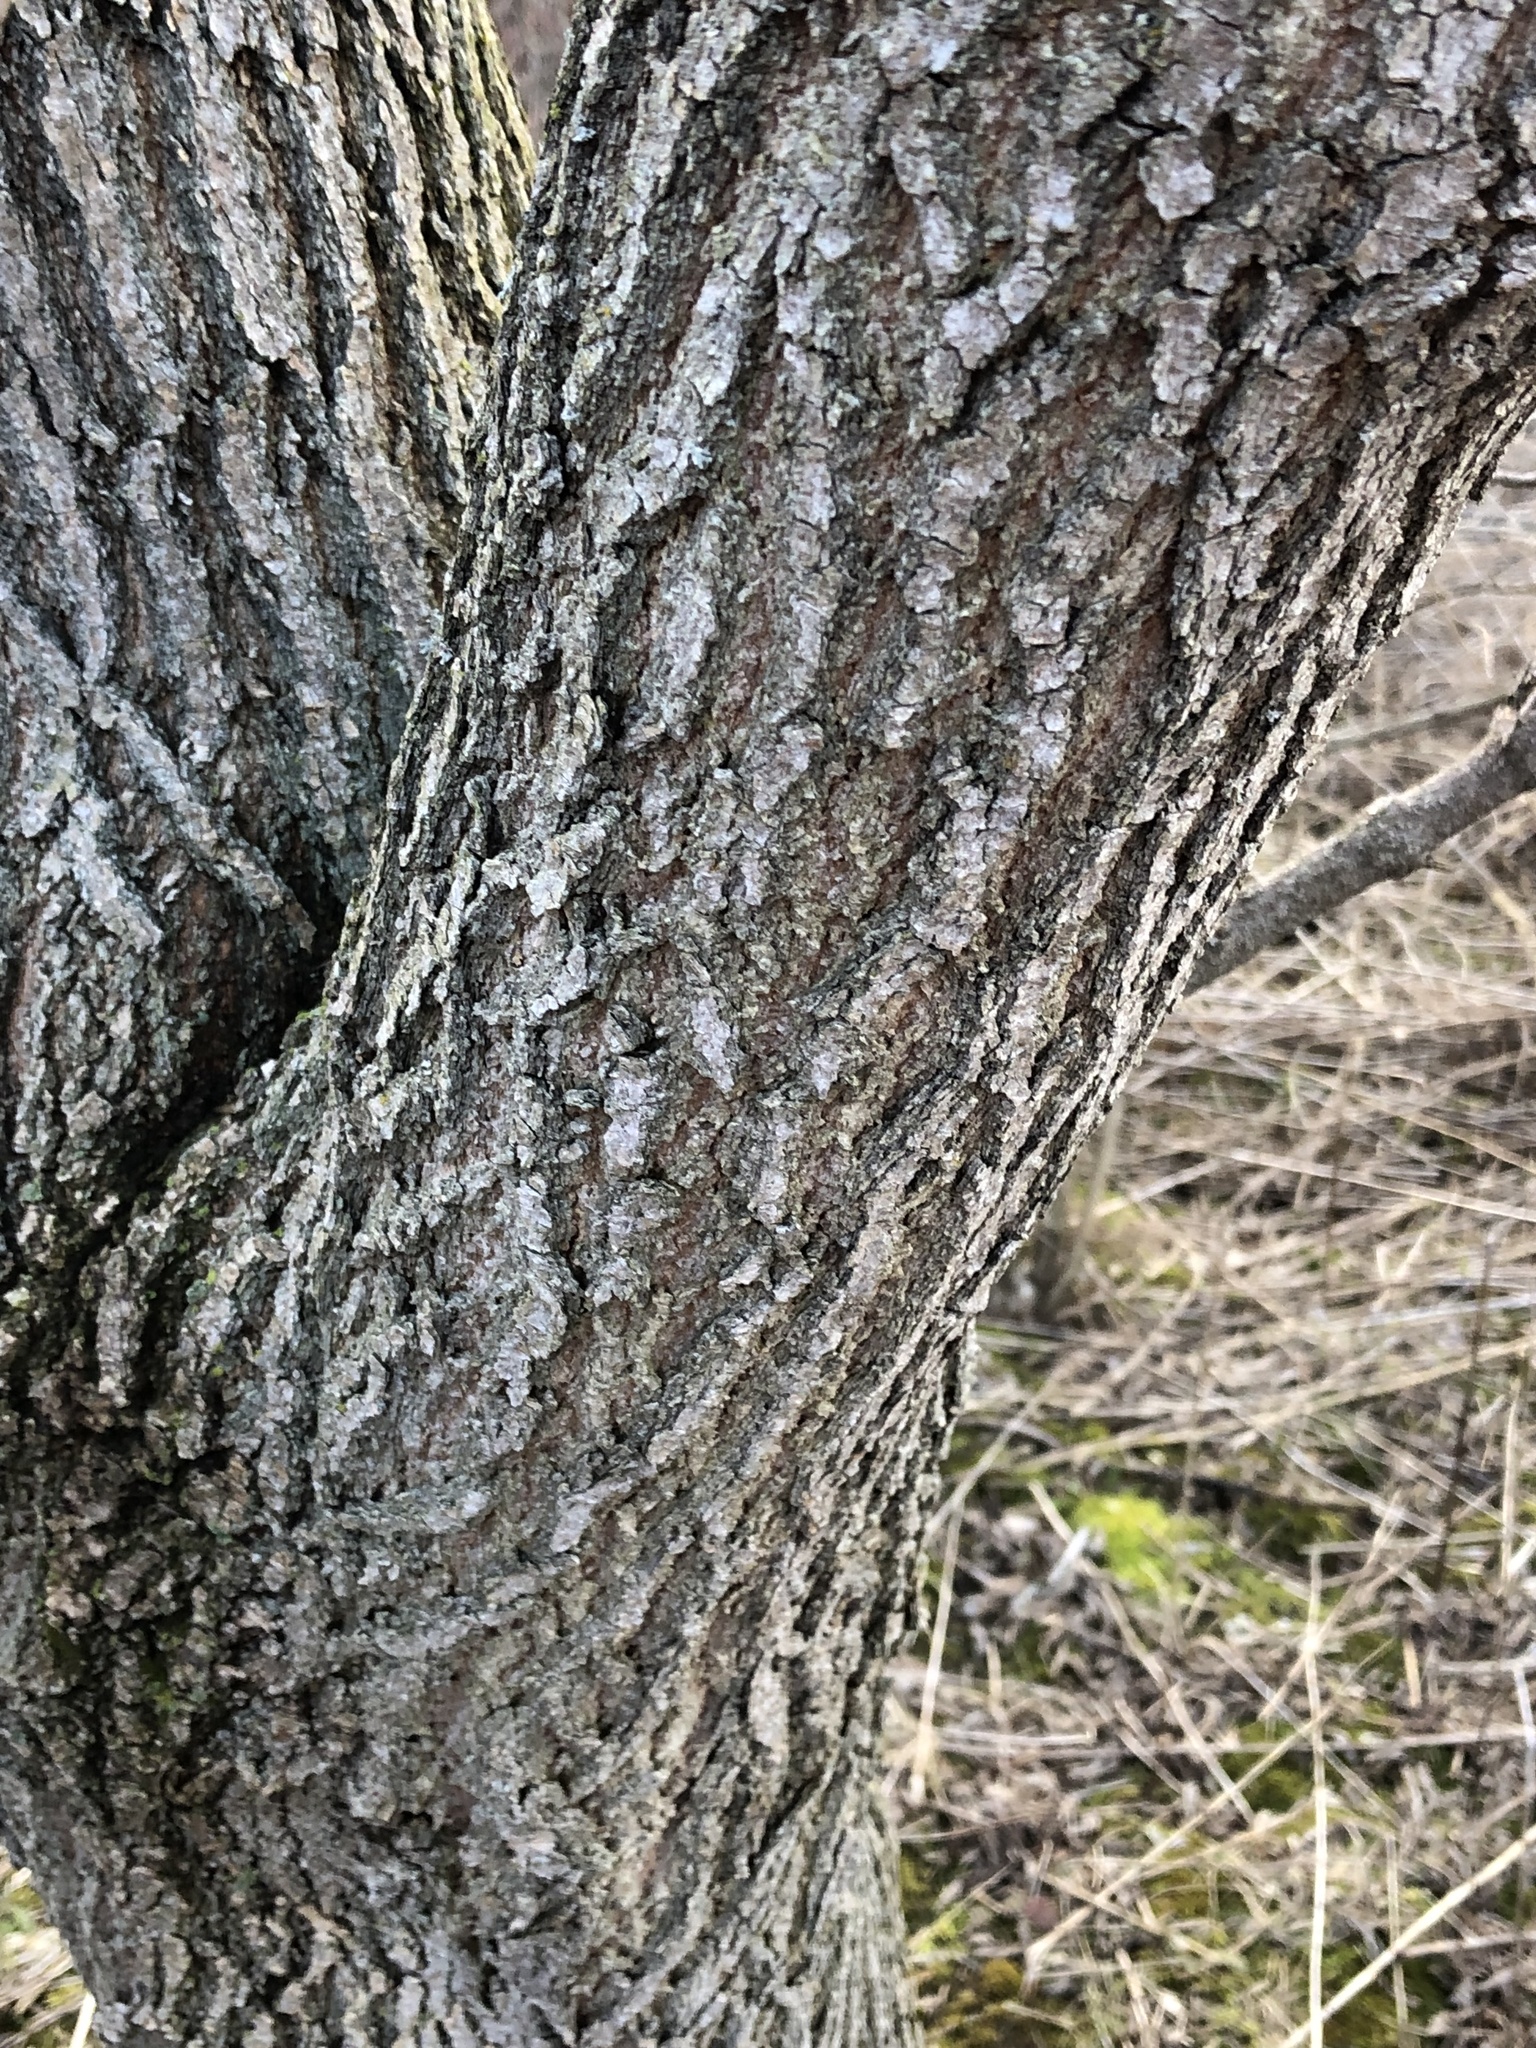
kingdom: Plantae
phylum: Tracheophyta
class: Magnoliopsida
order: Sapindales
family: Sapindaceae
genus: Acer
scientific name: Acer negundo
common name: Ashleaf maple
